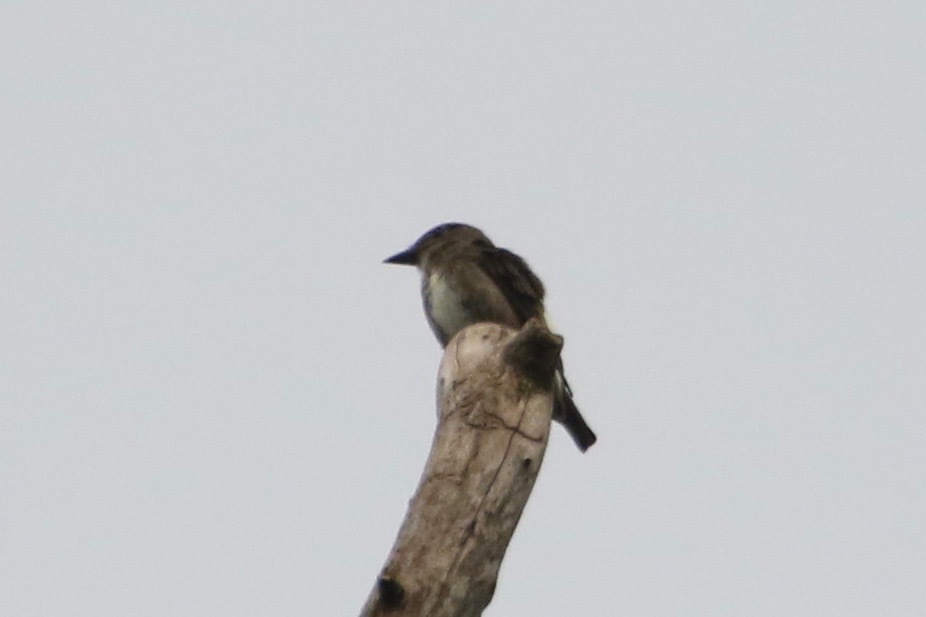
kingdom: Animalia
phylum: Chordata
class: Aves
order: Passeriformes
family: Tyrannidae
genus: Contopus
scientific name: Contopus cooperi
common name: Olive-sided flycatcher
